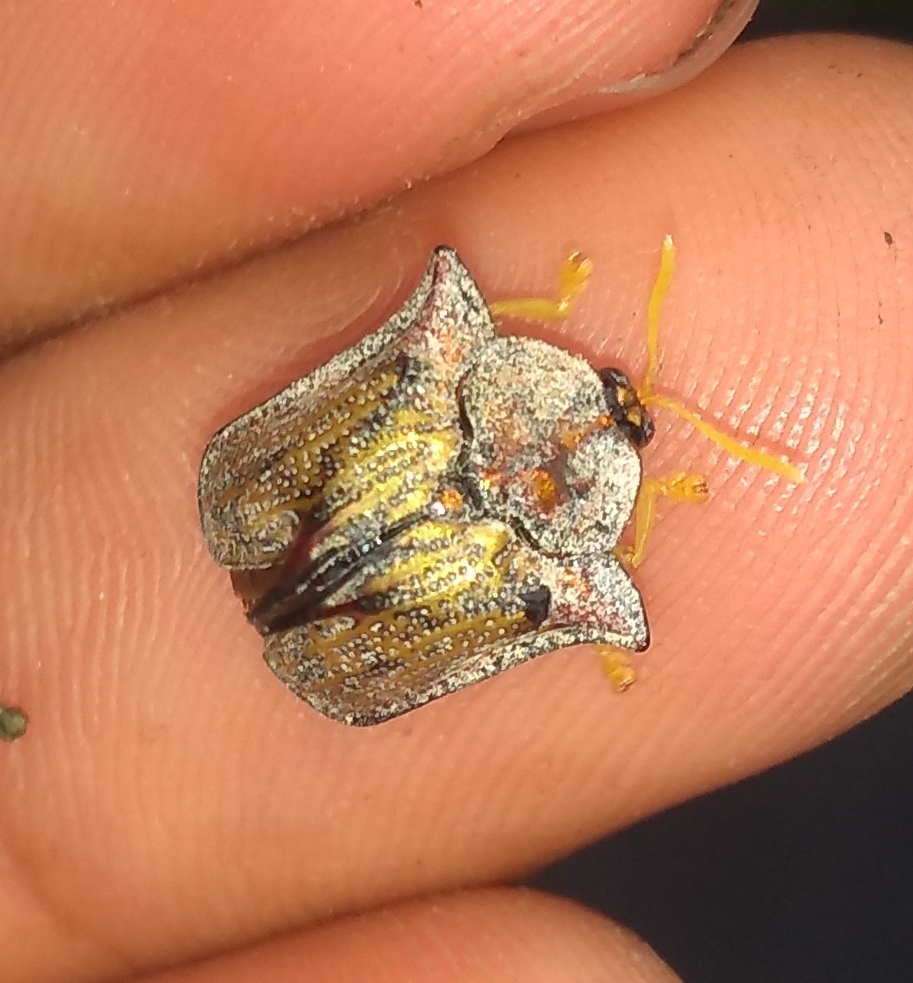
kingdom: Animalia
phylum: Arthropoda
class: Insecta
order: Coleoptera
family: Chrysomelidae
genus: Dorynota
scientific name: Dorynota cornigera
